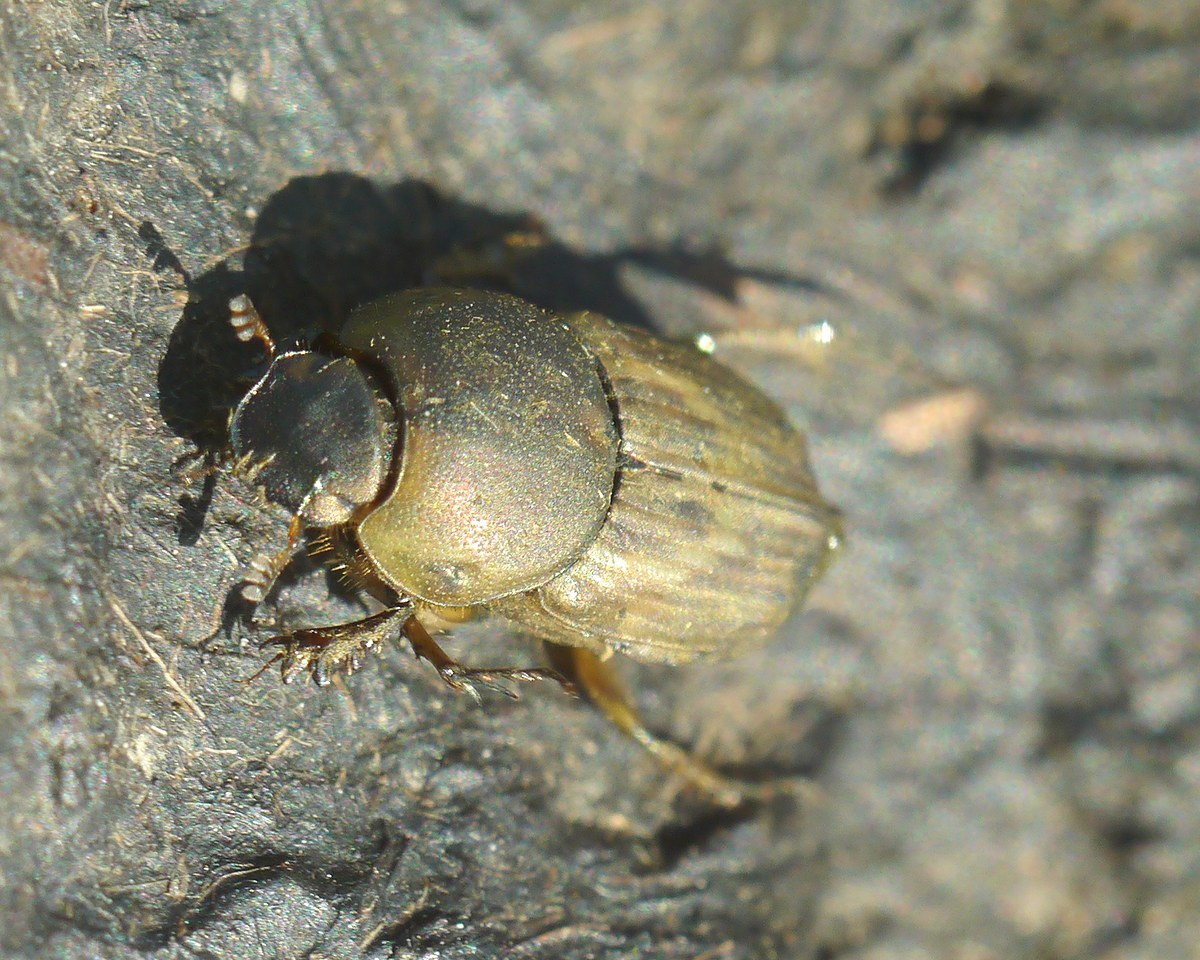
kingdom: Animalia
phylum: Arthropoda
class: Insecta
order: Coleoptera
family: Scarabaeidae
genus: Euoniticellus
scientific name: Euoniticellus fulvus
